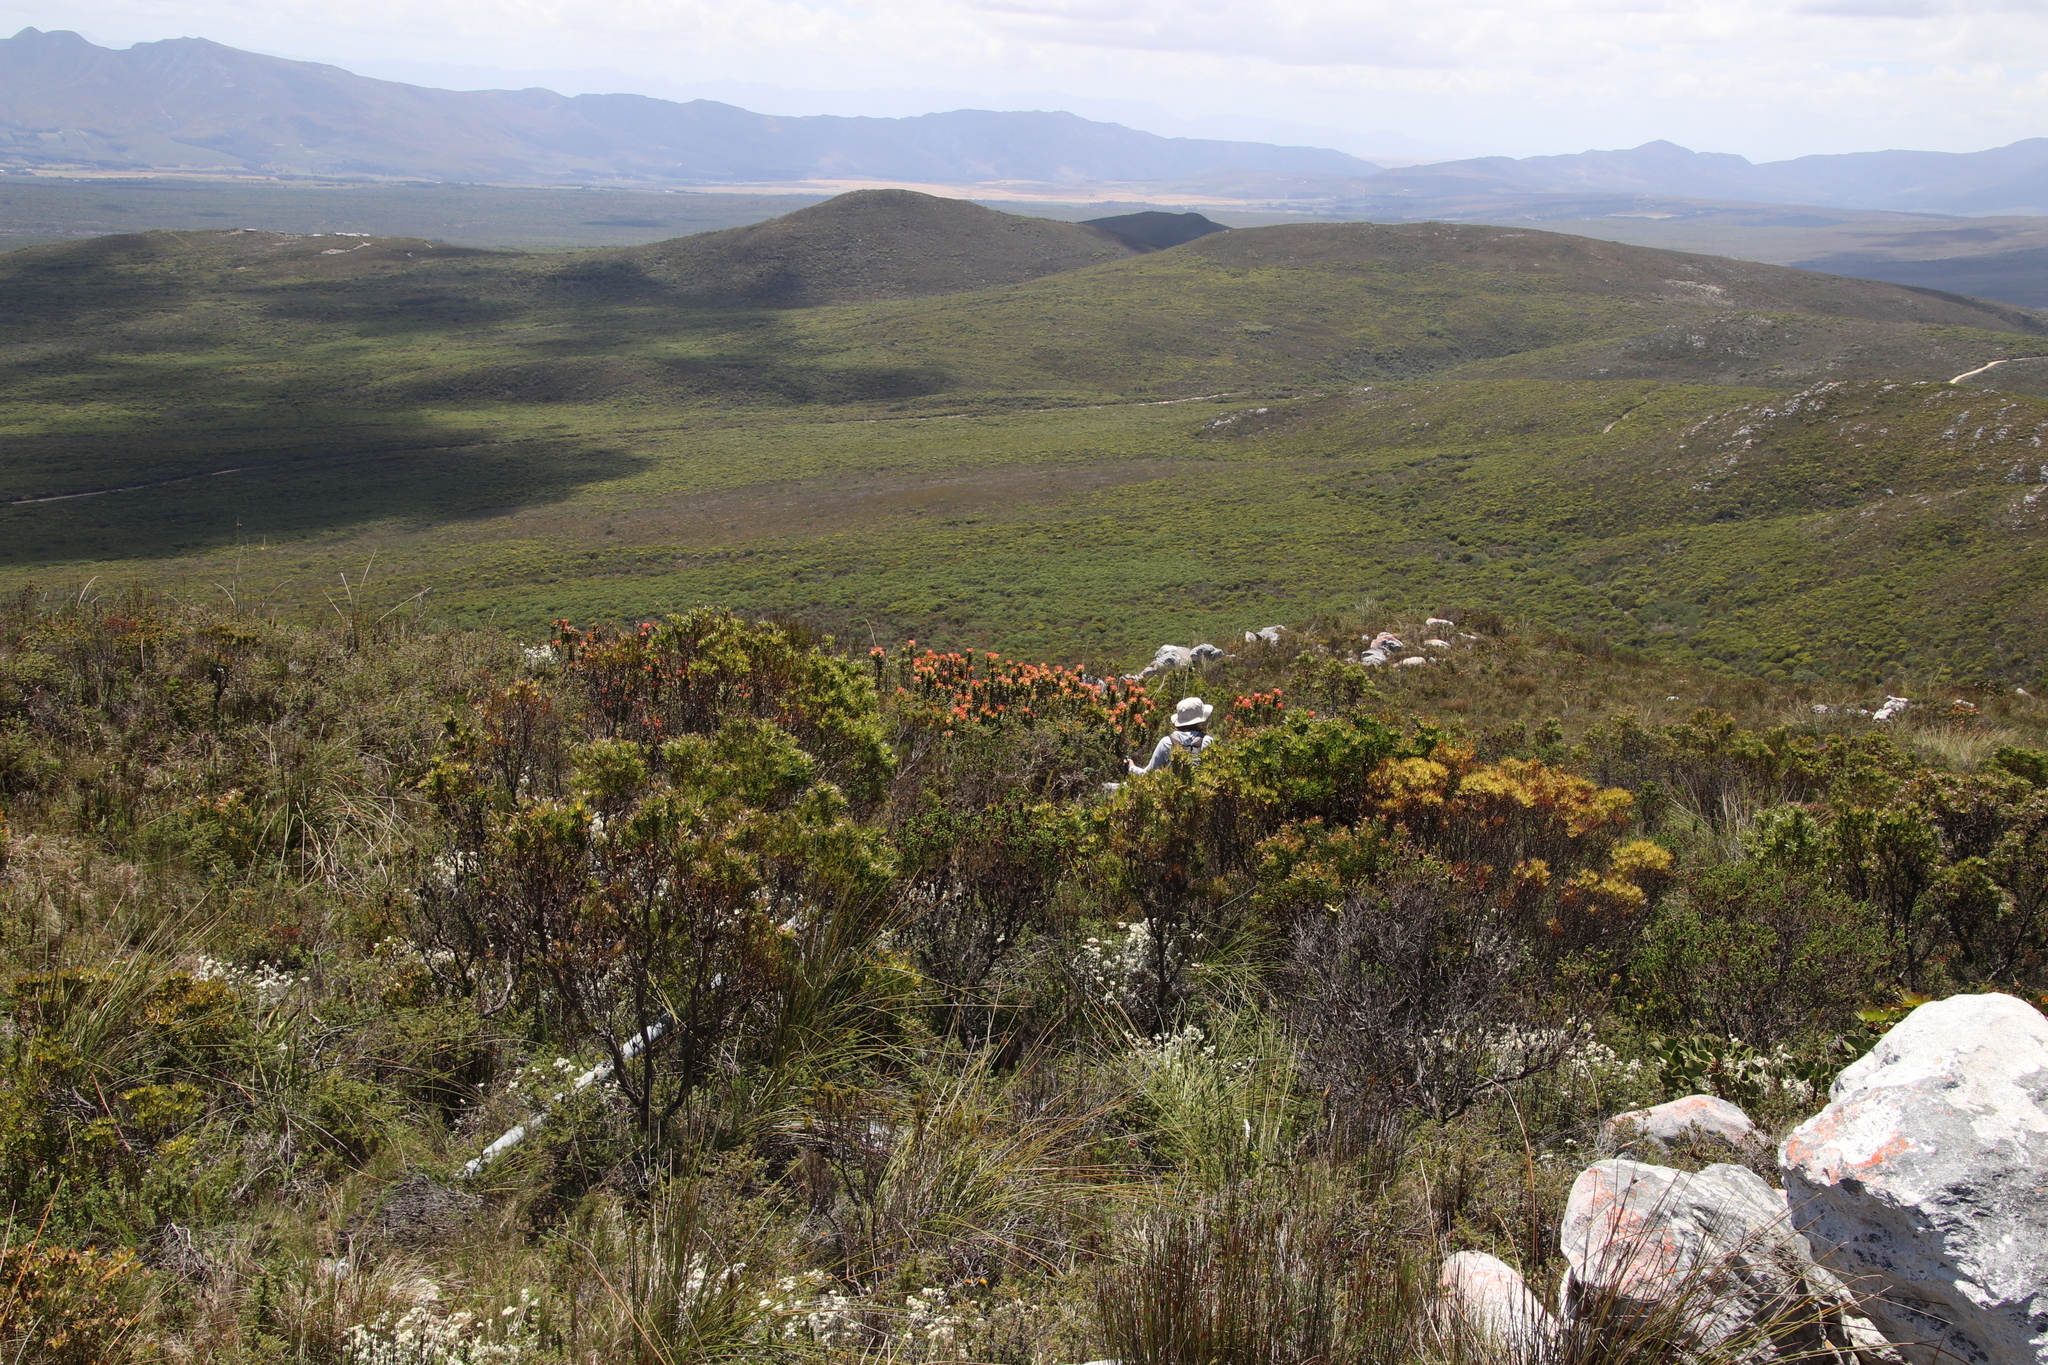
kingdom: Plantae
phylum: Tracheophyta
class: Magnoliopsida
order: Proteales
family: Proteaceae
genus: Leucadendron
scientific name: Leucadendron xanthoconus
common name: Sickle-leaf conebush
